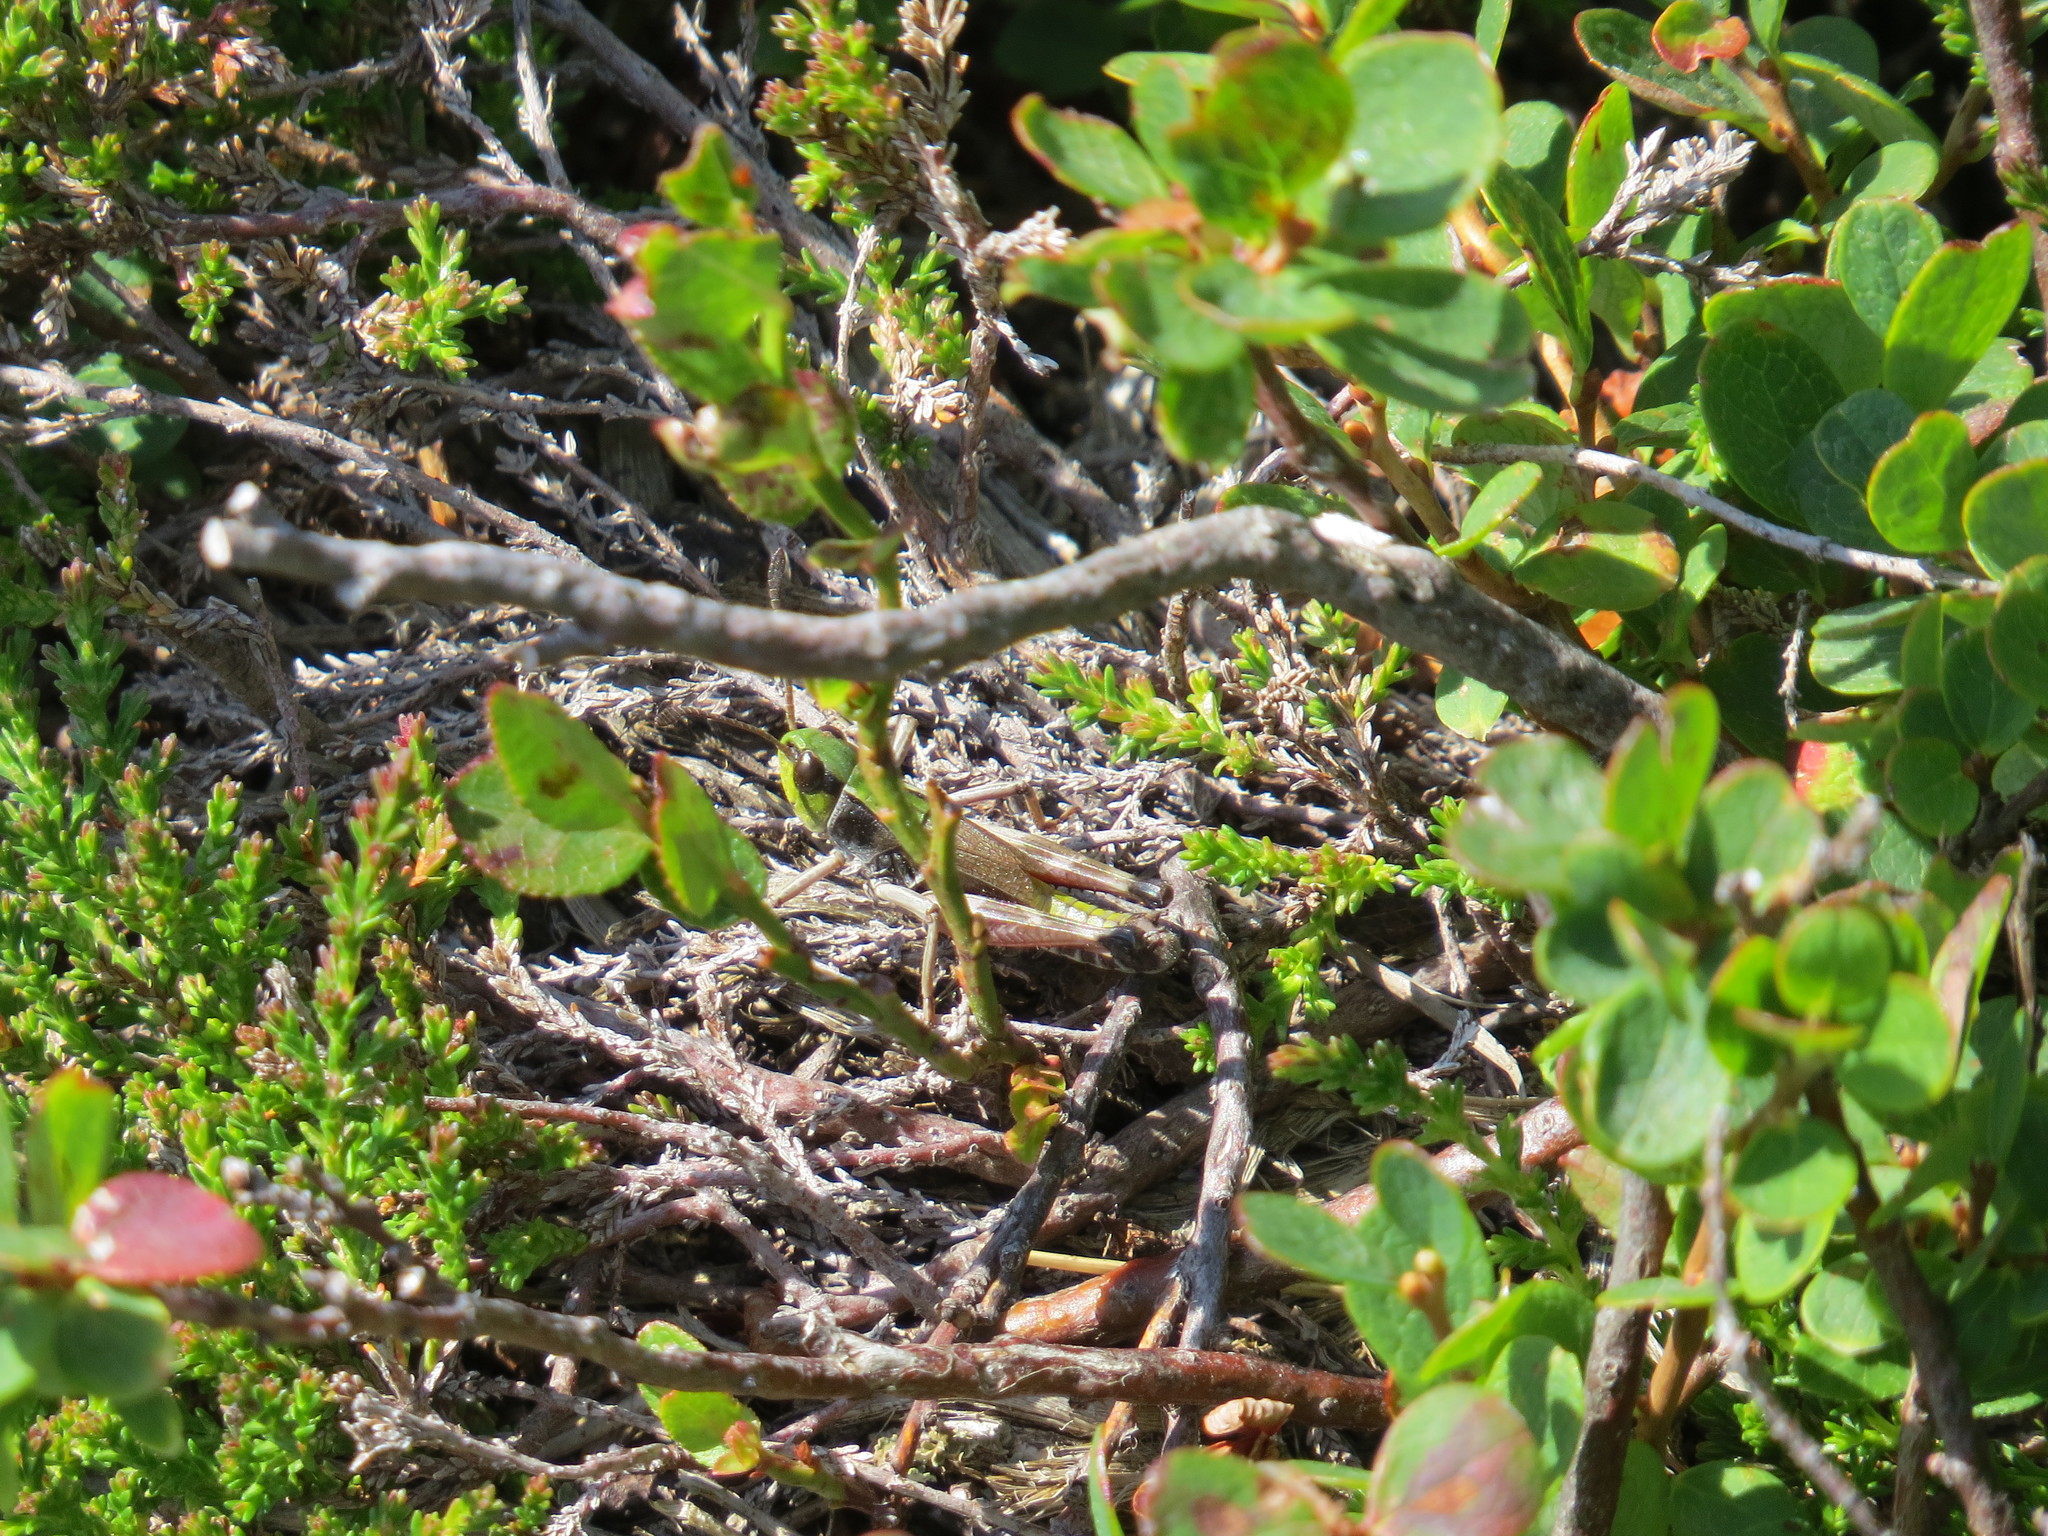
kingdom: Animalia
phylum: Arthropoda
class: Insecta
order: Orthoptera
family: Acrididae
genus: Gomphoceridius
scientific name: Gomphoceridius brevipenne
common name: Pyrenean short-winged grasshopper
